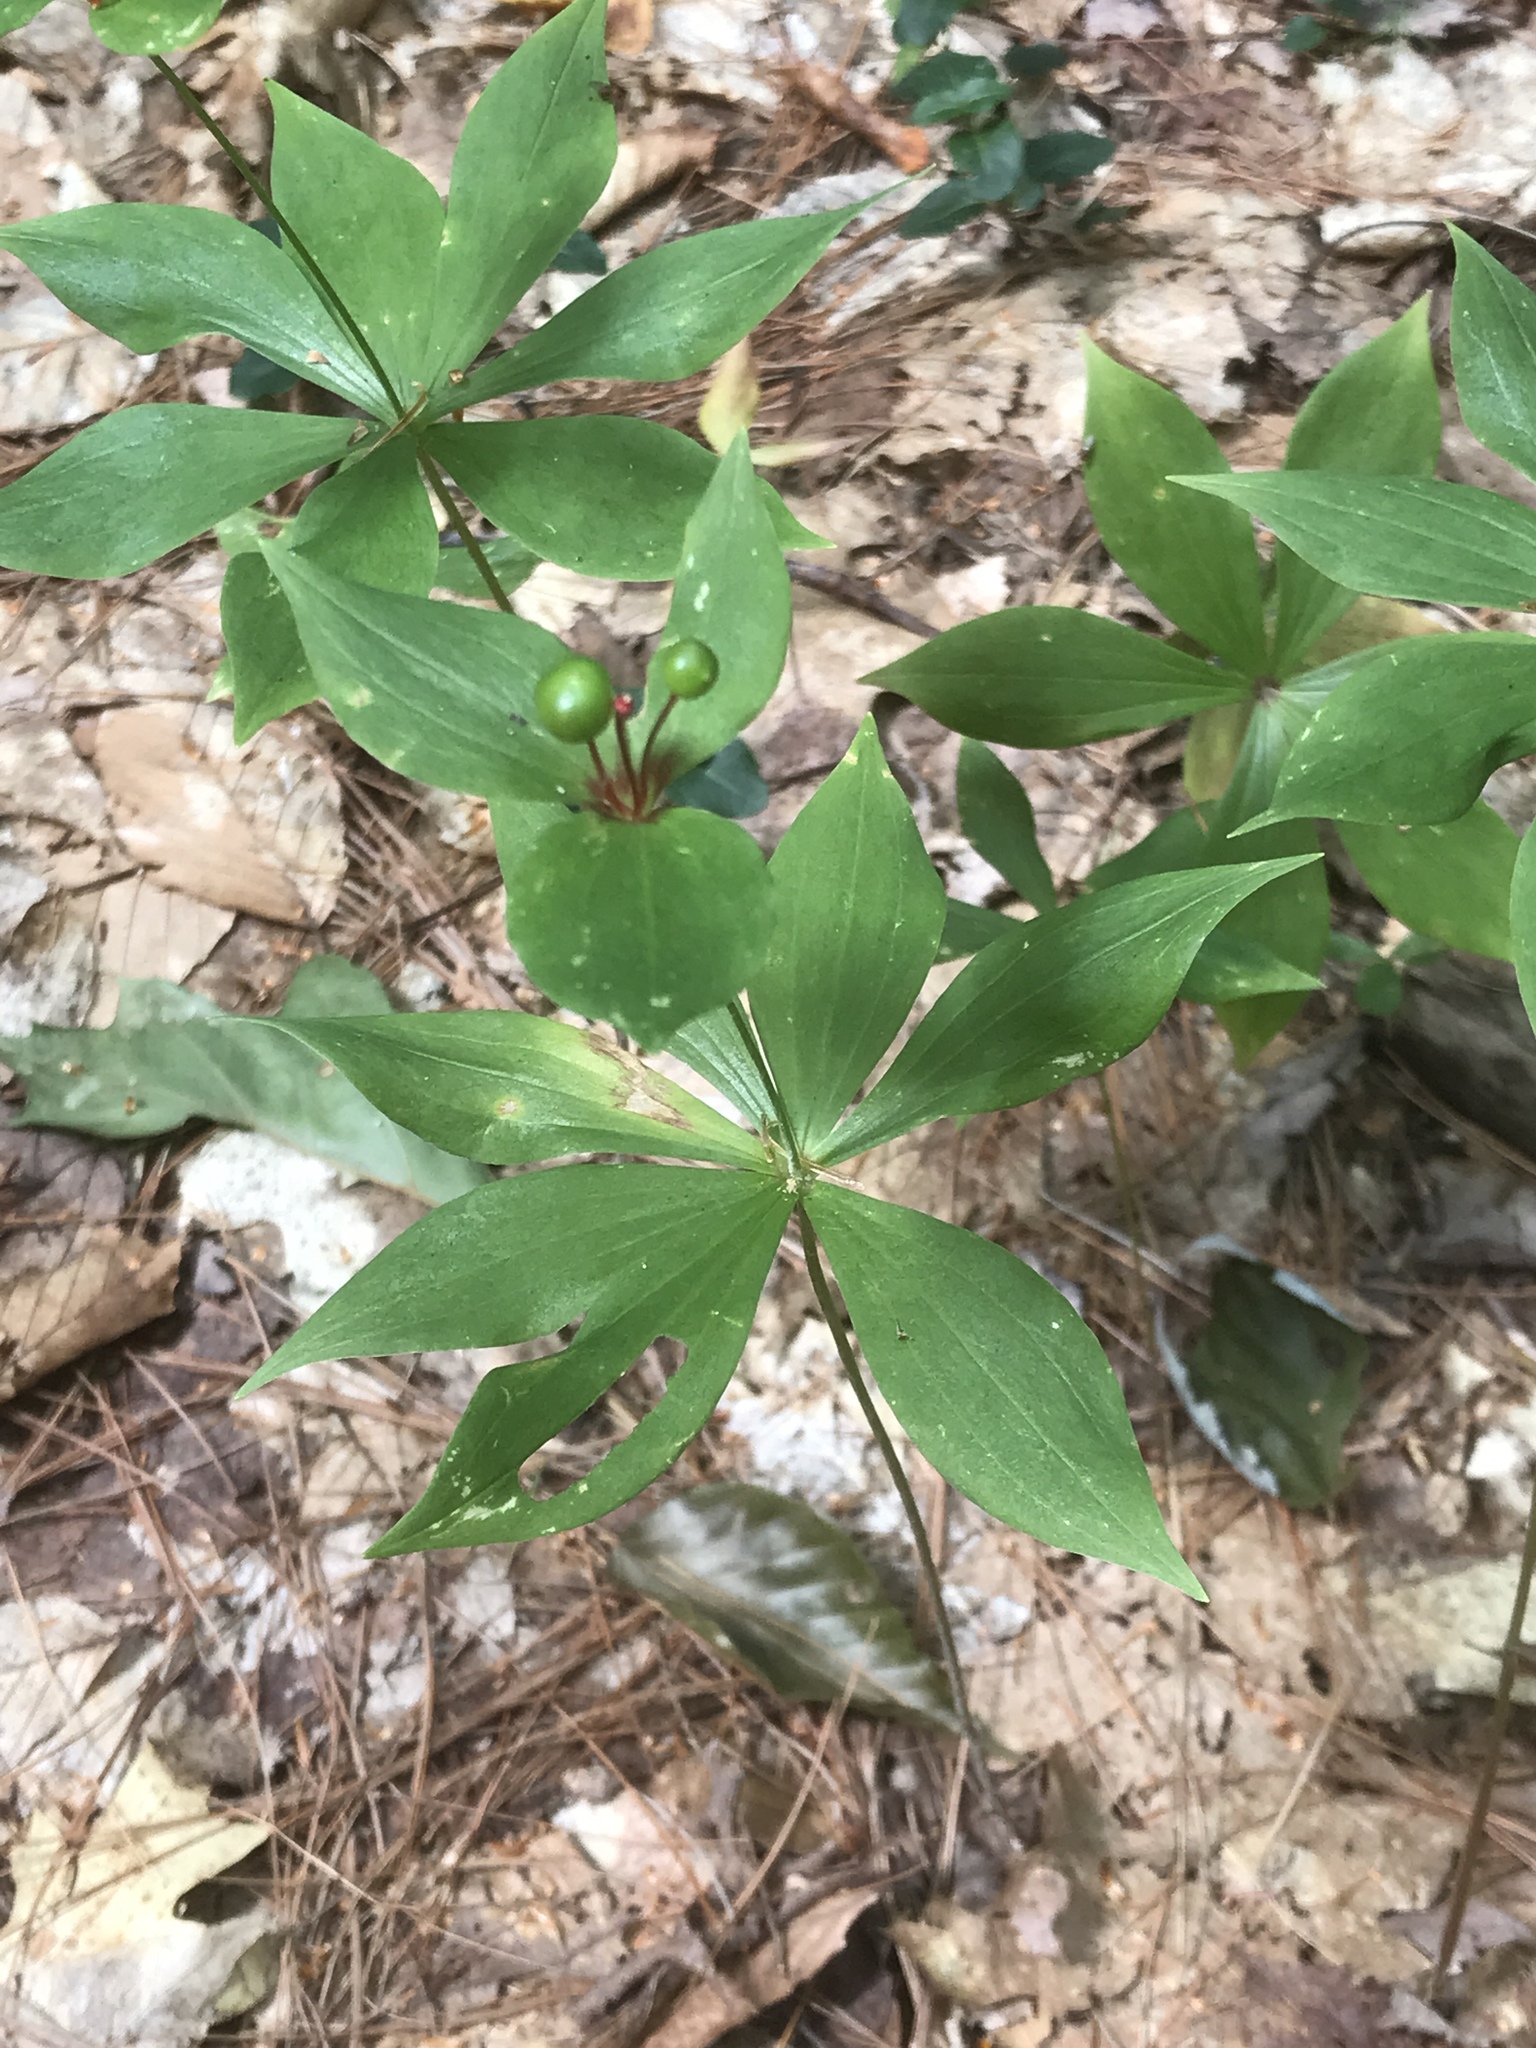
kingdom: Plantae
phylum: Tracheophyta
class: Liliopsida
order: Liliales
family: Liliaceae
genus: Medeola
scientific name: Medeola virginiana
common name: Indian cucumber-root
